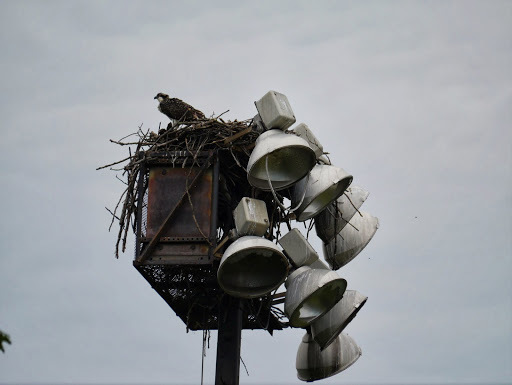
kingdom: Animalia
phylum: Chordata
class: Aves
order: Accipitriformes
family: Pandionidae
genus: Pandion
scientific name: Pandion haliaetus
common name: Osprey
